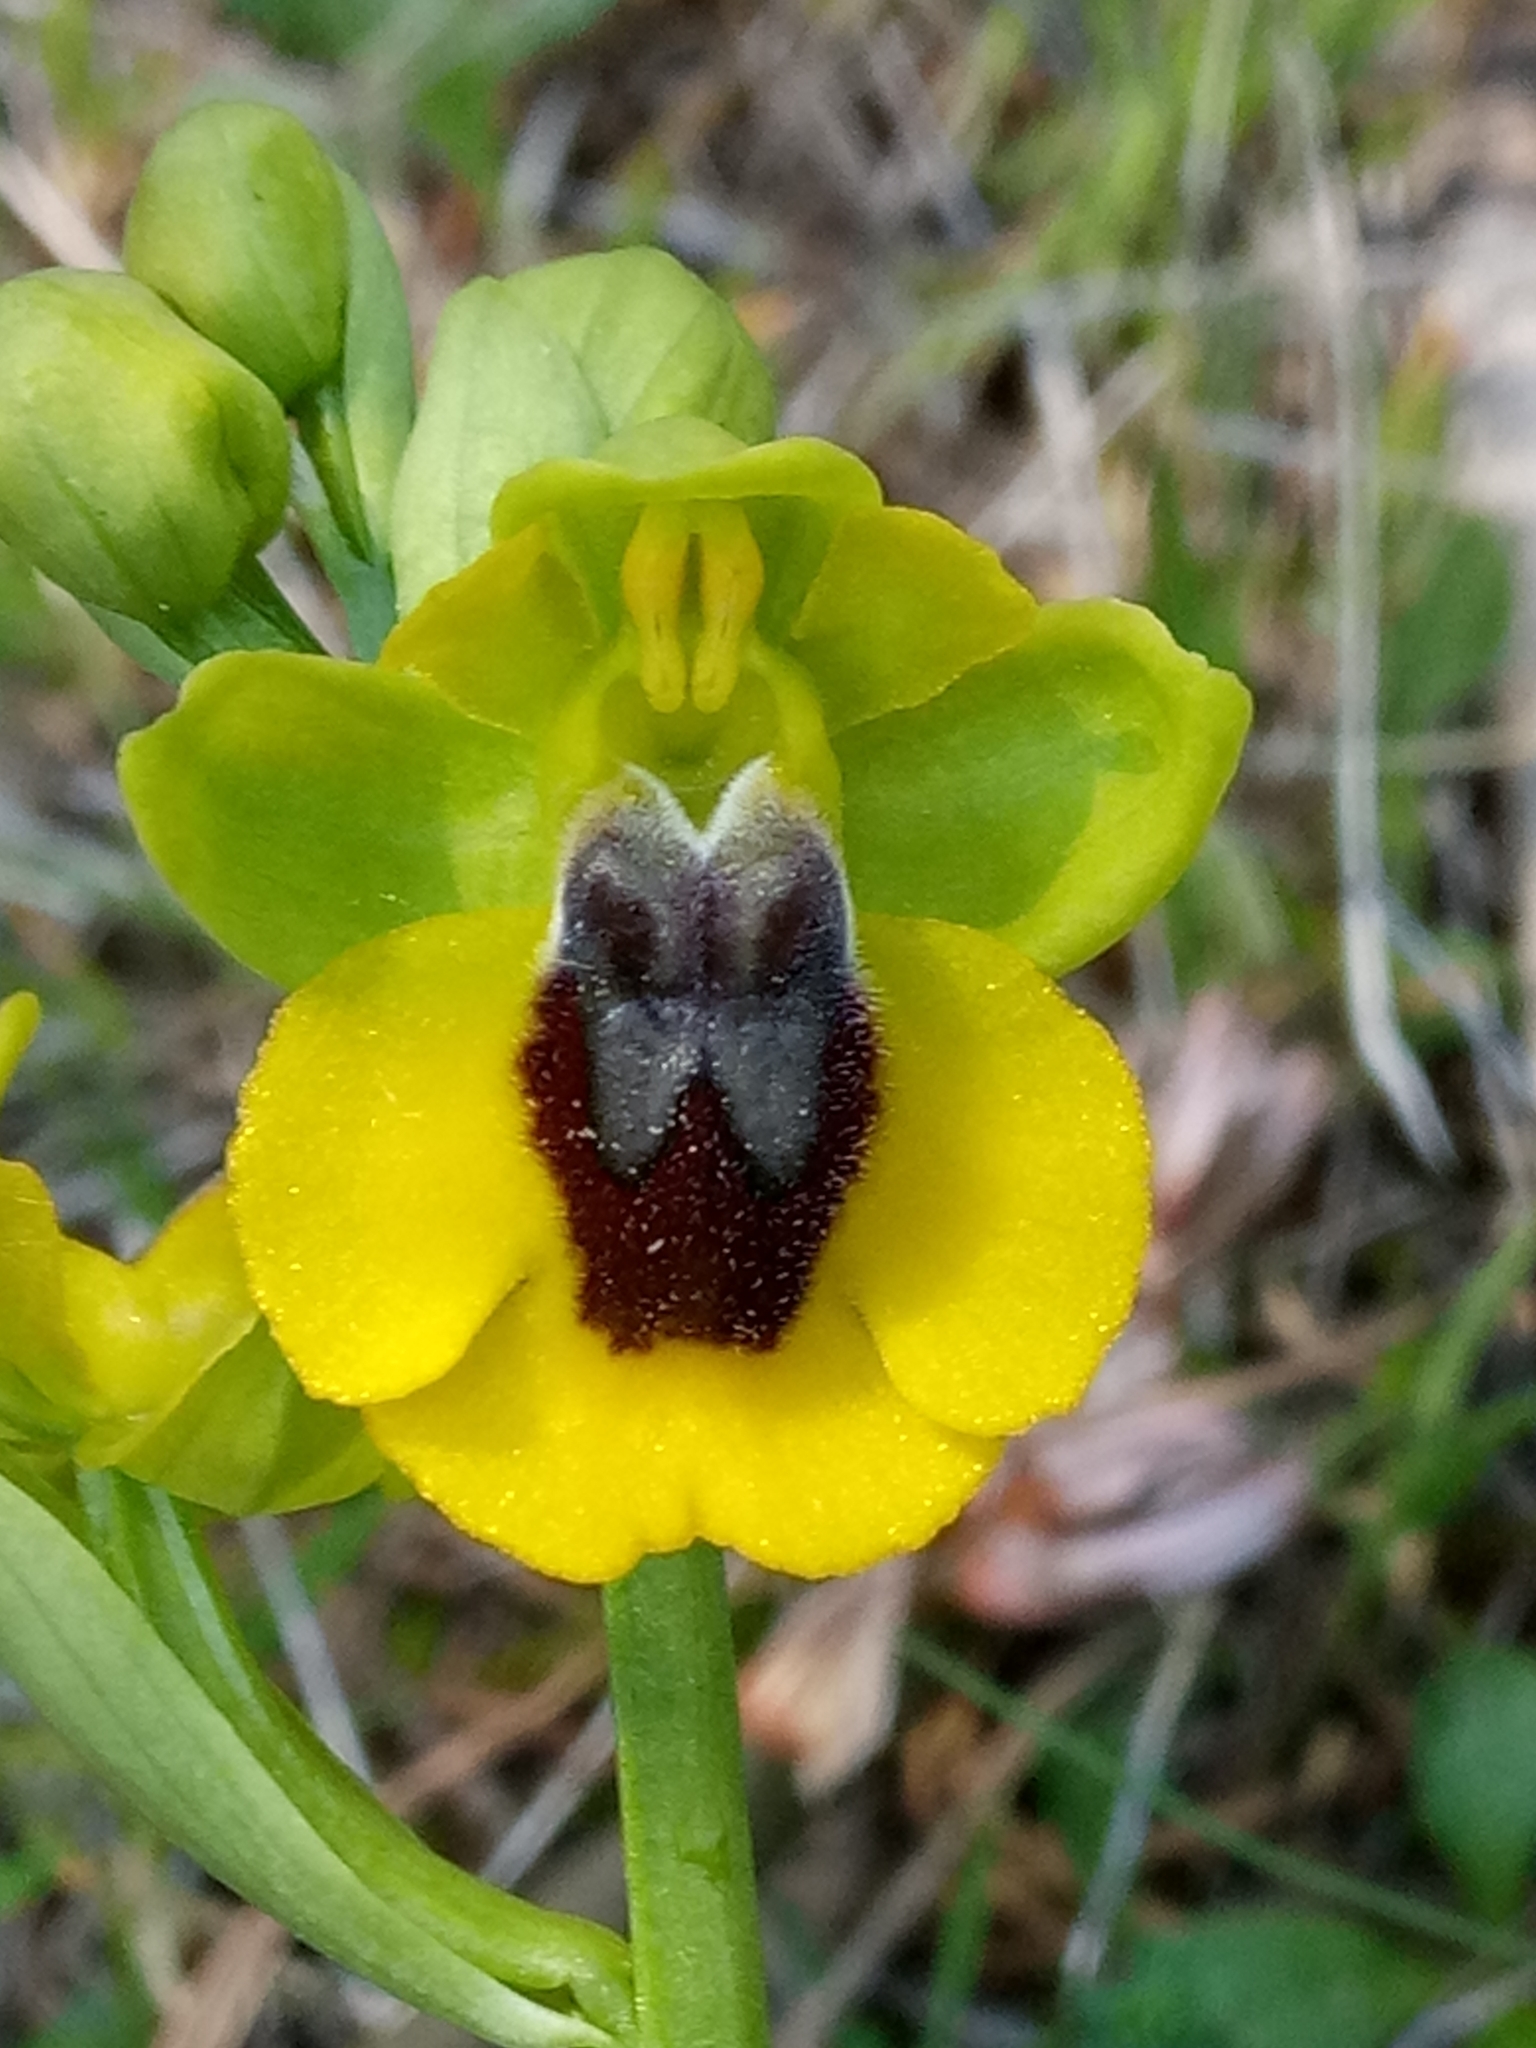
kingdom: Plantae
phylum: Tracheophyta
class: Liliopsida
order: Asparagales
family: Orchidaceae
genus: Ophrys
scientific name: Ophrys lutea
